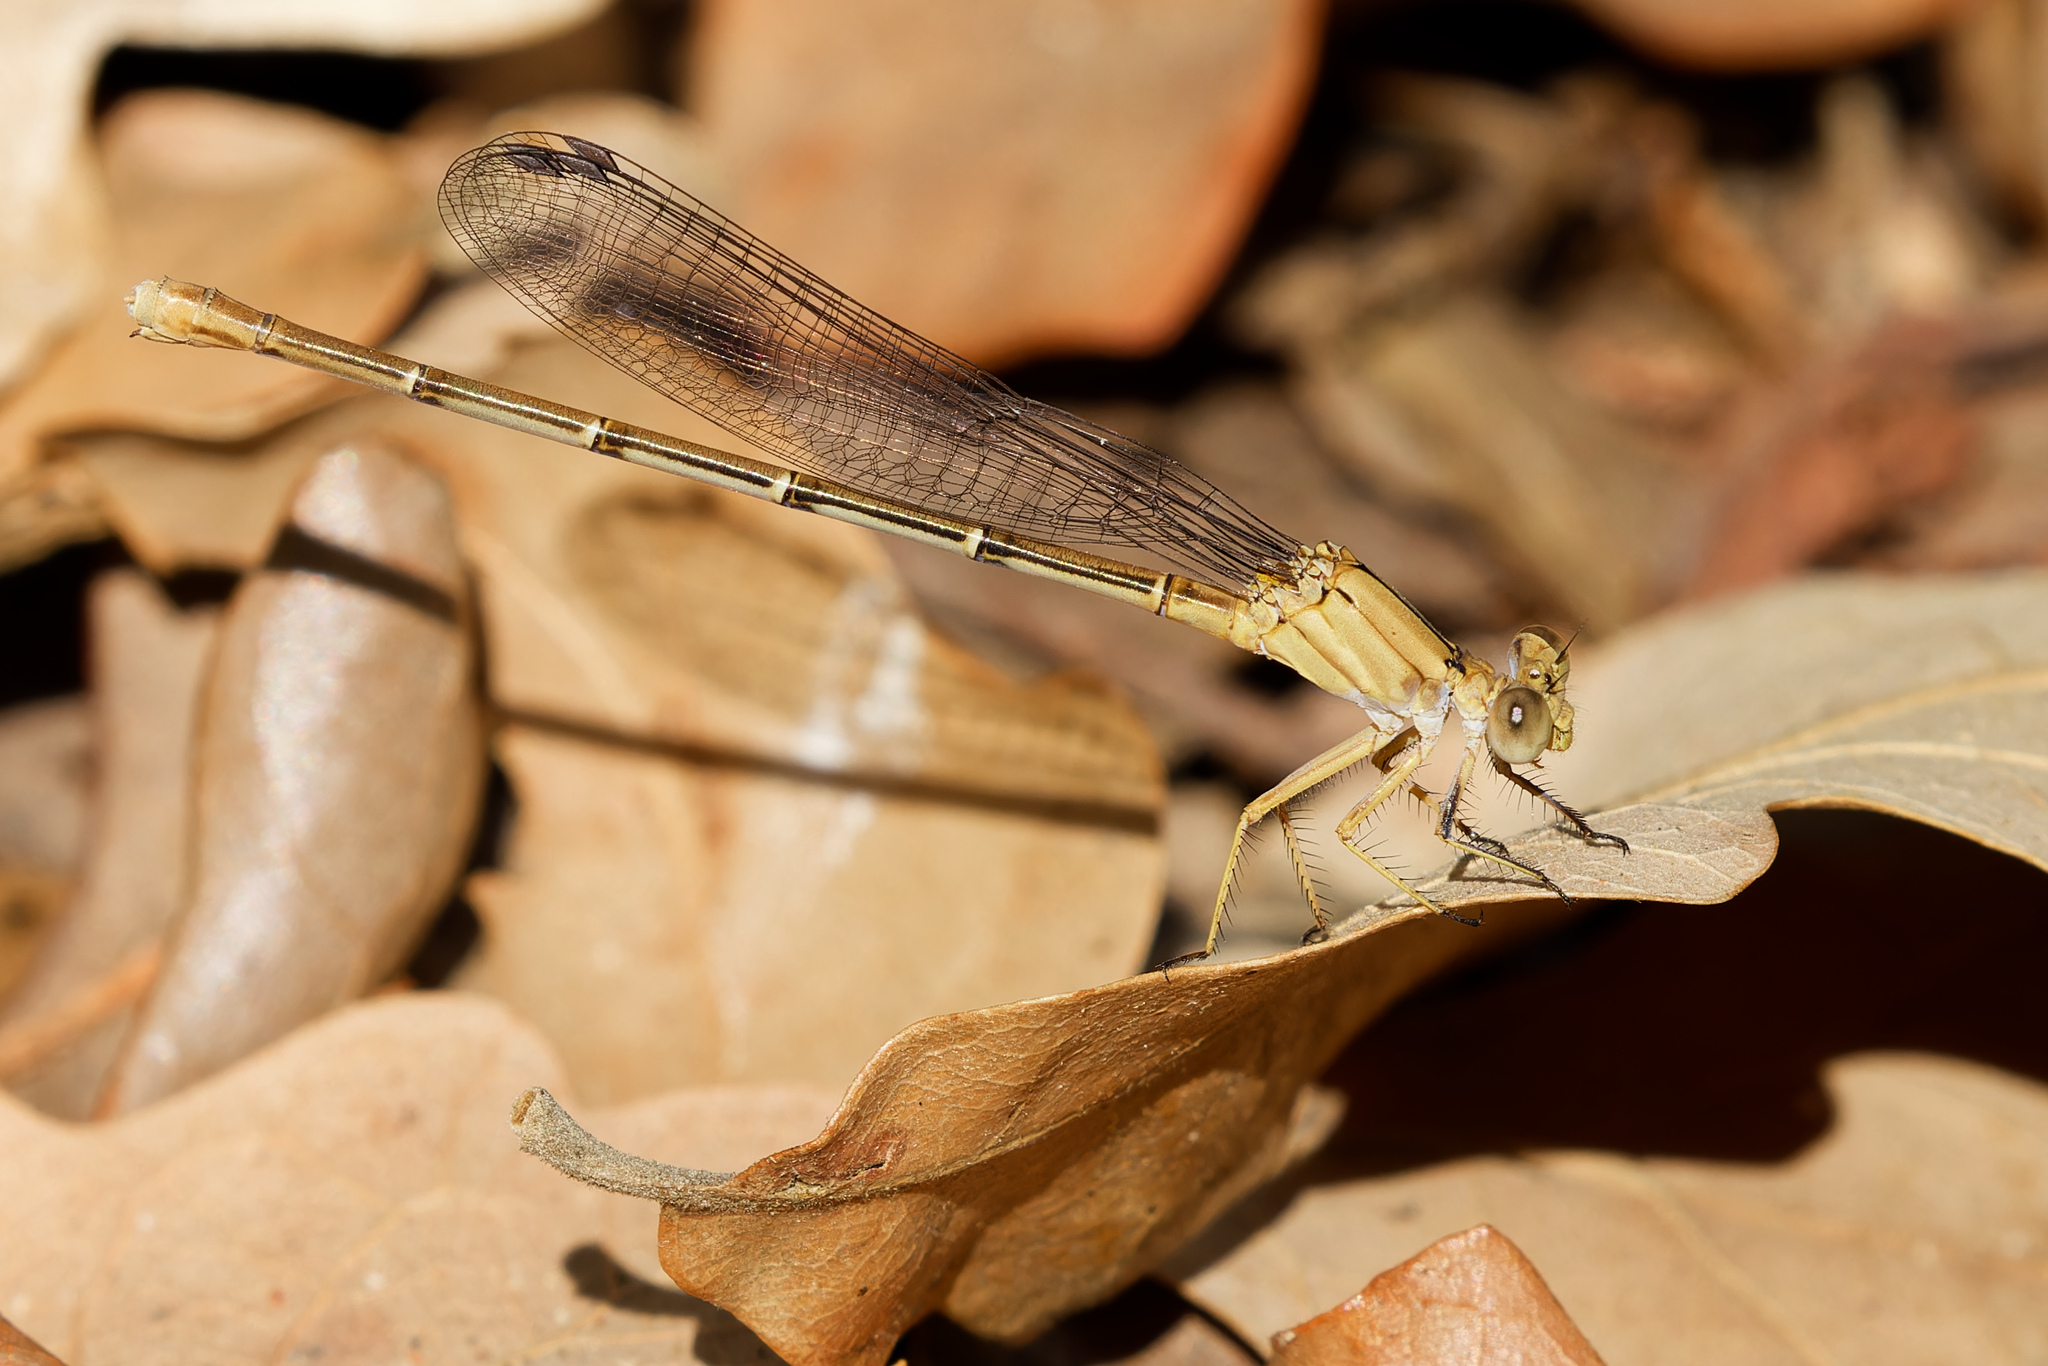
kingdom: Animalia
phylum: Arthropoda
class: Insecta
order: Odonata
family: Coenagrionidae
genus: Argia
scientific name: Argia moesta
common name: Powdered dancer
